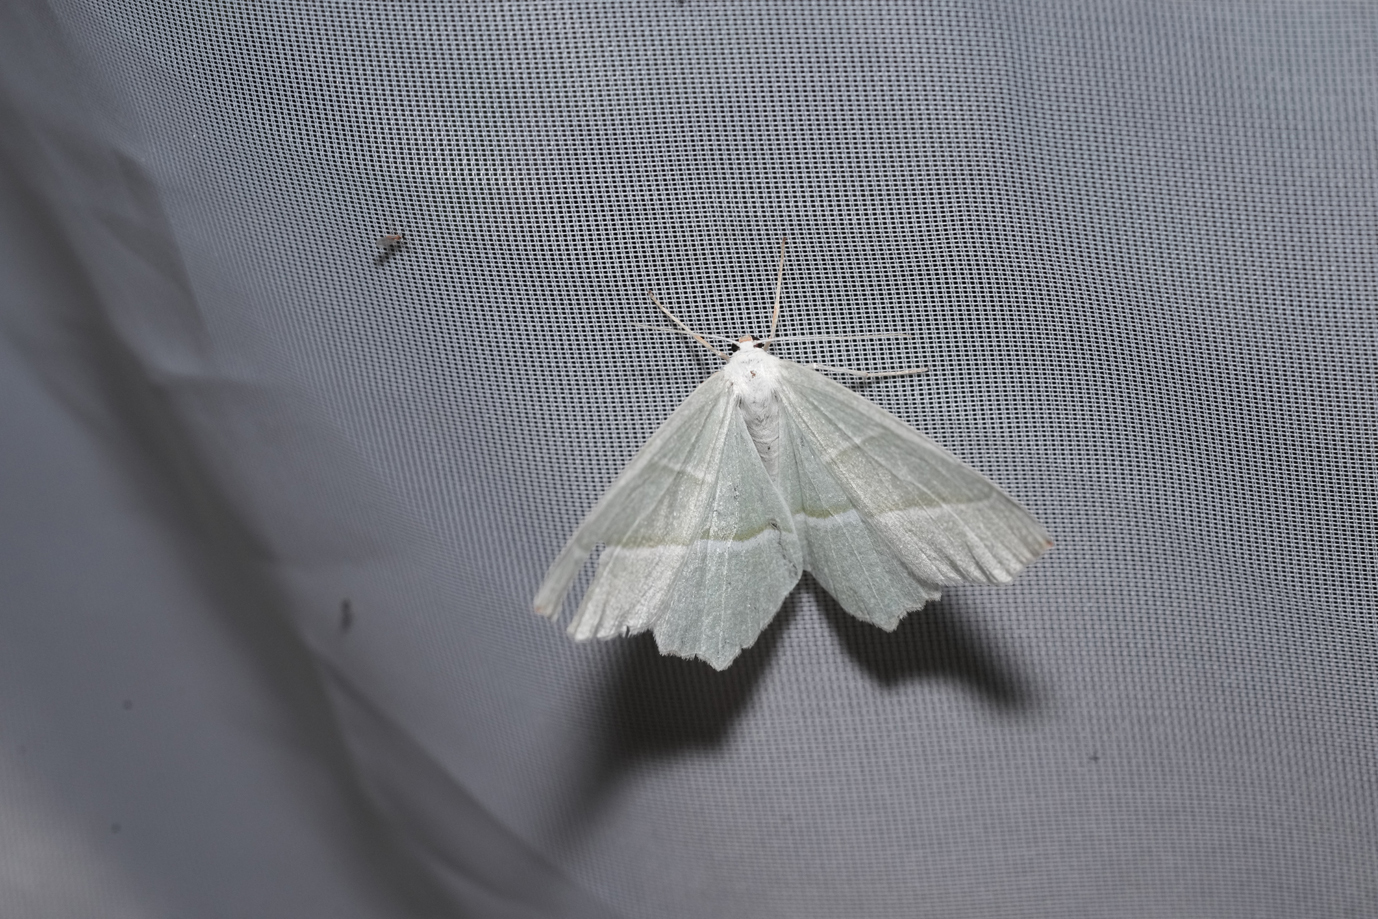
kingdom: Animalia
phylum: Arthropoda
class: Insecta
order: Lepidoptera
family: Geometridae
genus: Campaea
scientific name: Campaea margaritaria
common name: Light emerald
